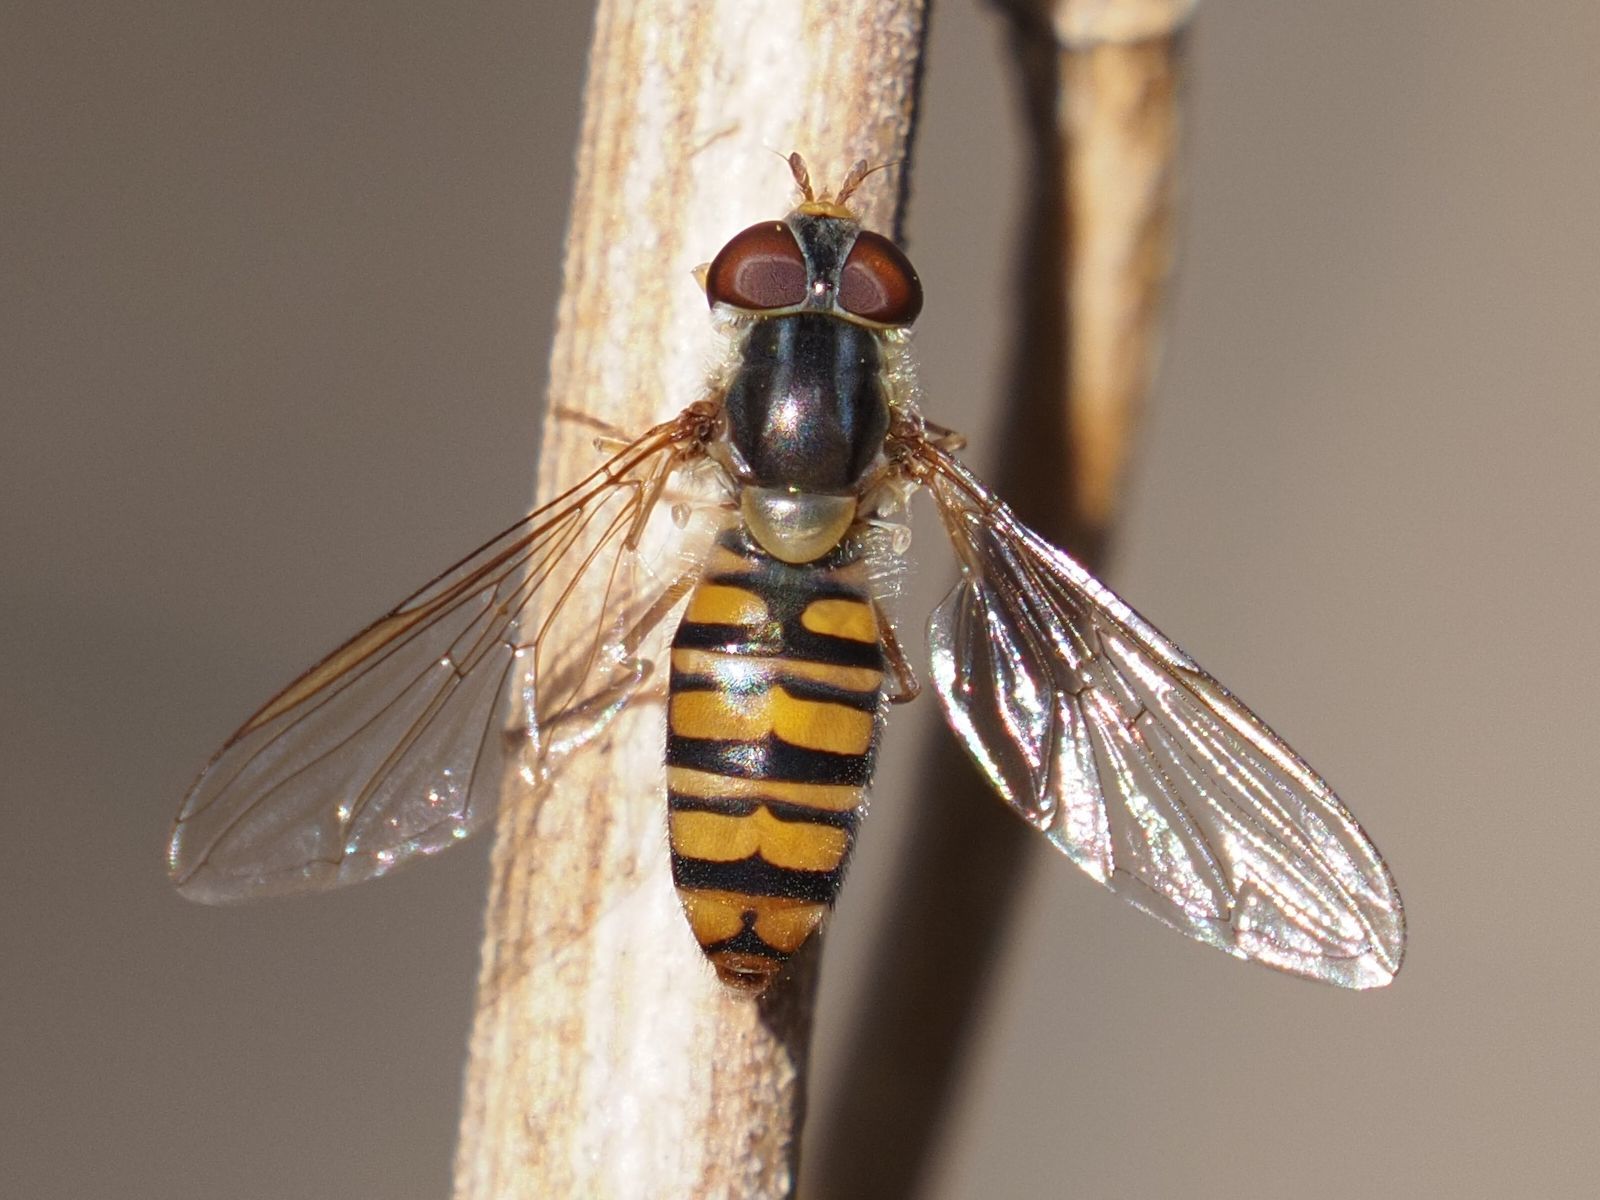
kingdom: Animalia
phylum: Arthropoda
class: Insecta
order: Diptera
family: Syrphidae
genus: Episyrphus
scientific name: Episyrphus balteatus
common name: Marmalade hoverfly
